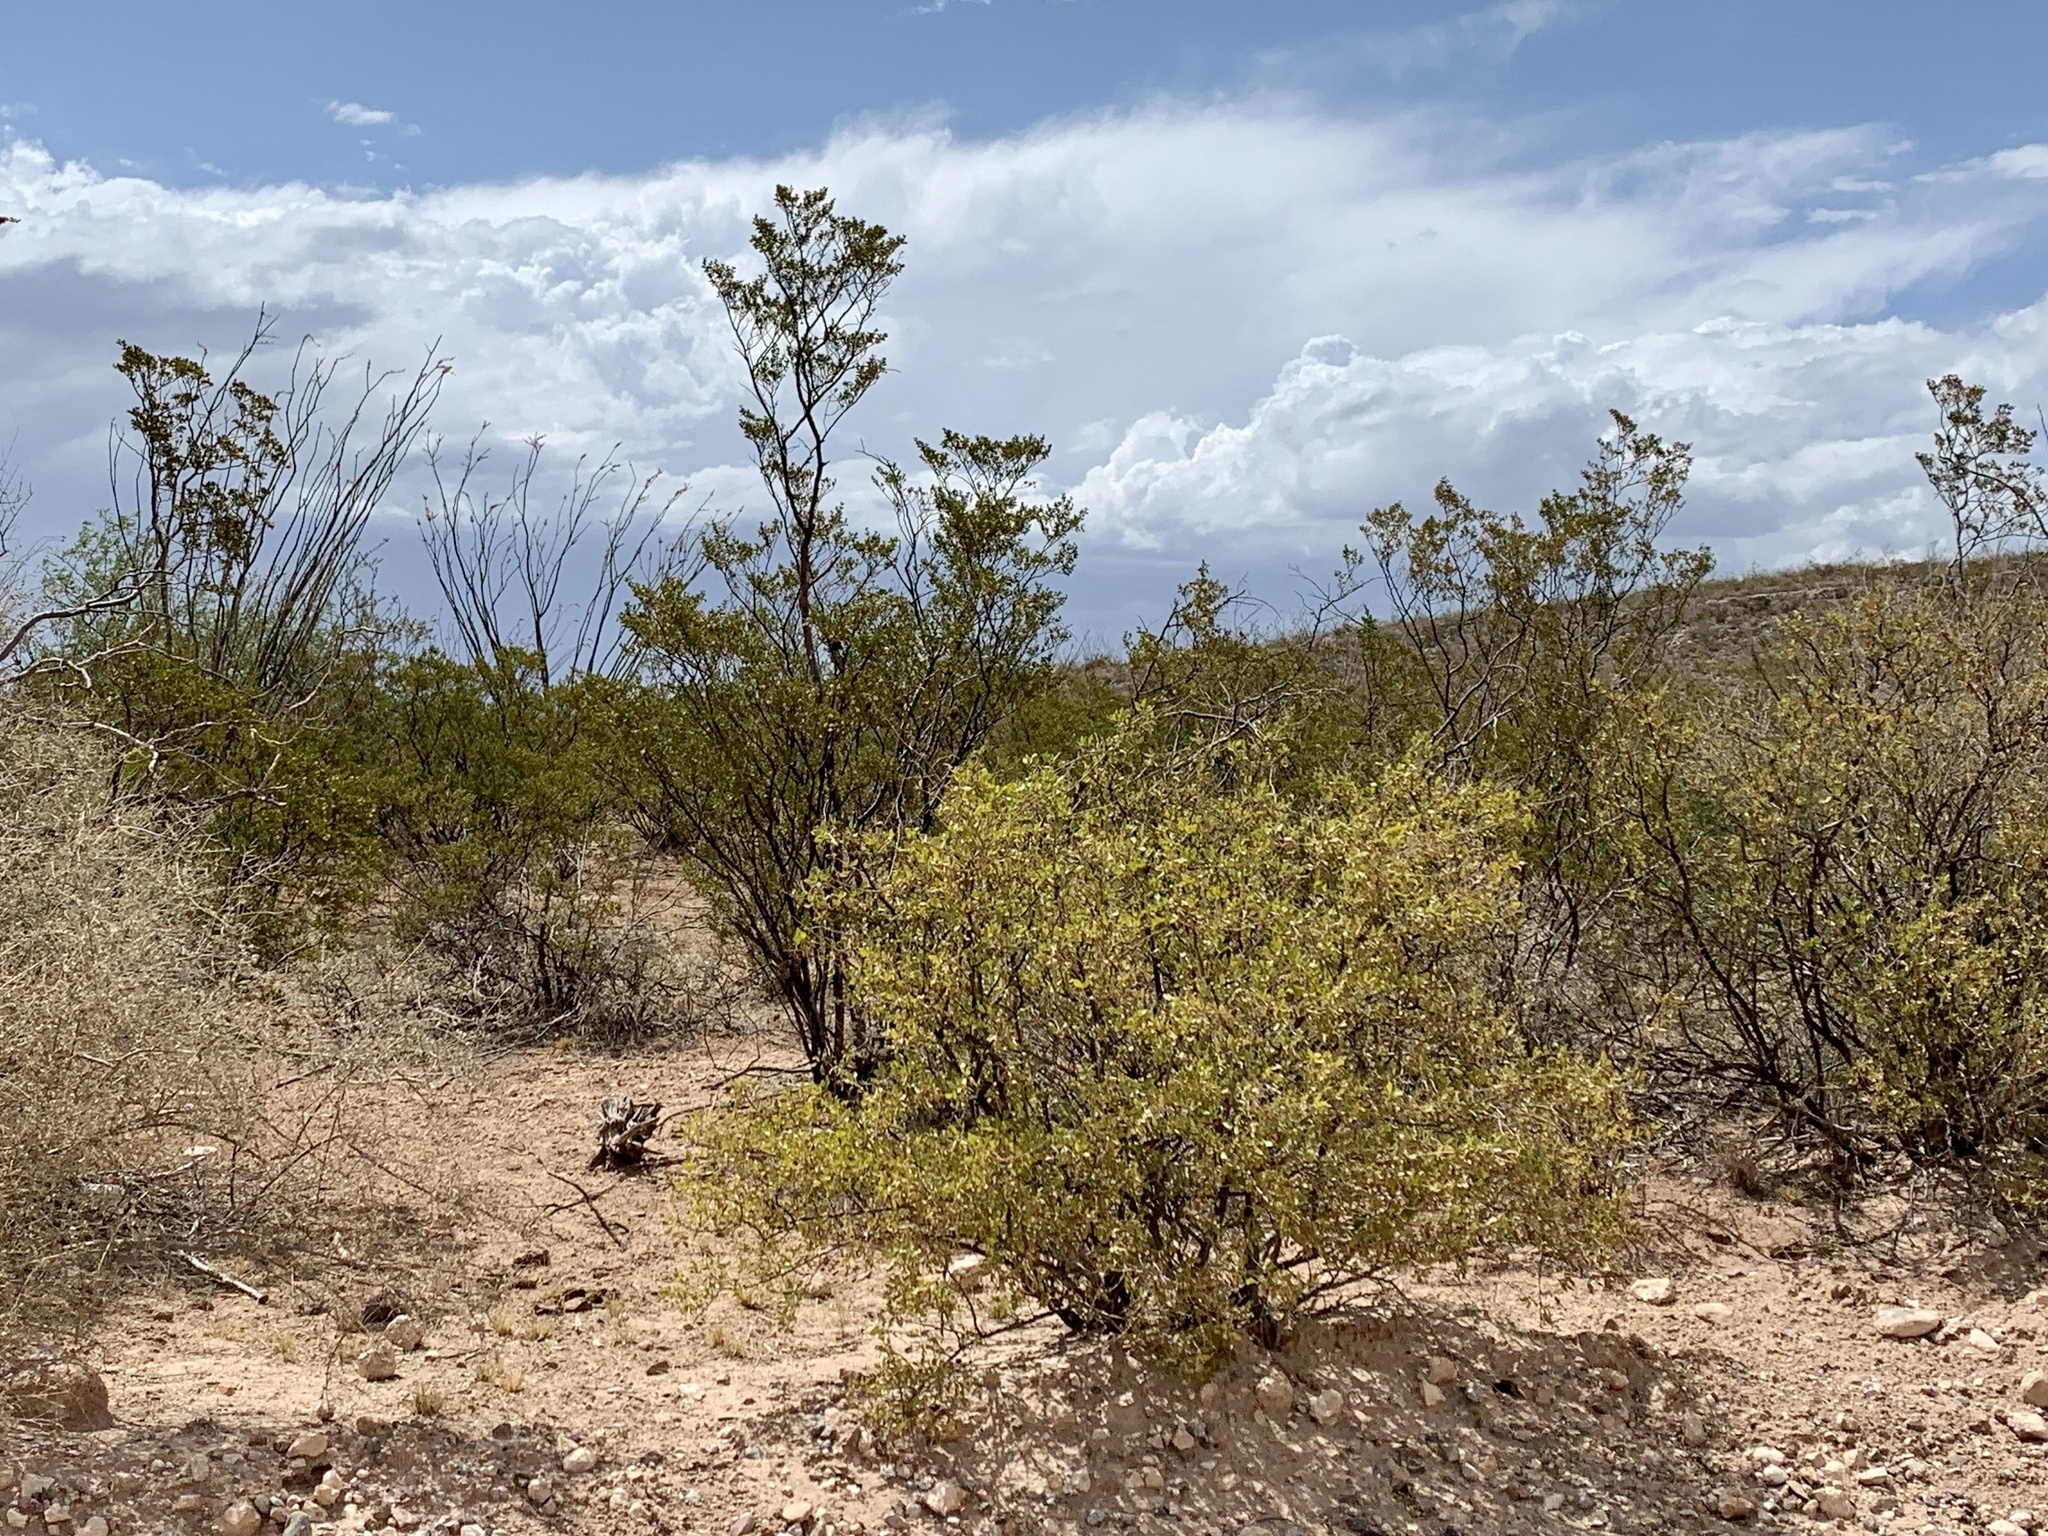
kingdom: Plantae
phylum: Tracheophyta
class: Magnoliopsida
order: Zygophyllales
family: Zygophyllaceae
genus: Larrea
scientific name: Larrea tridentata
